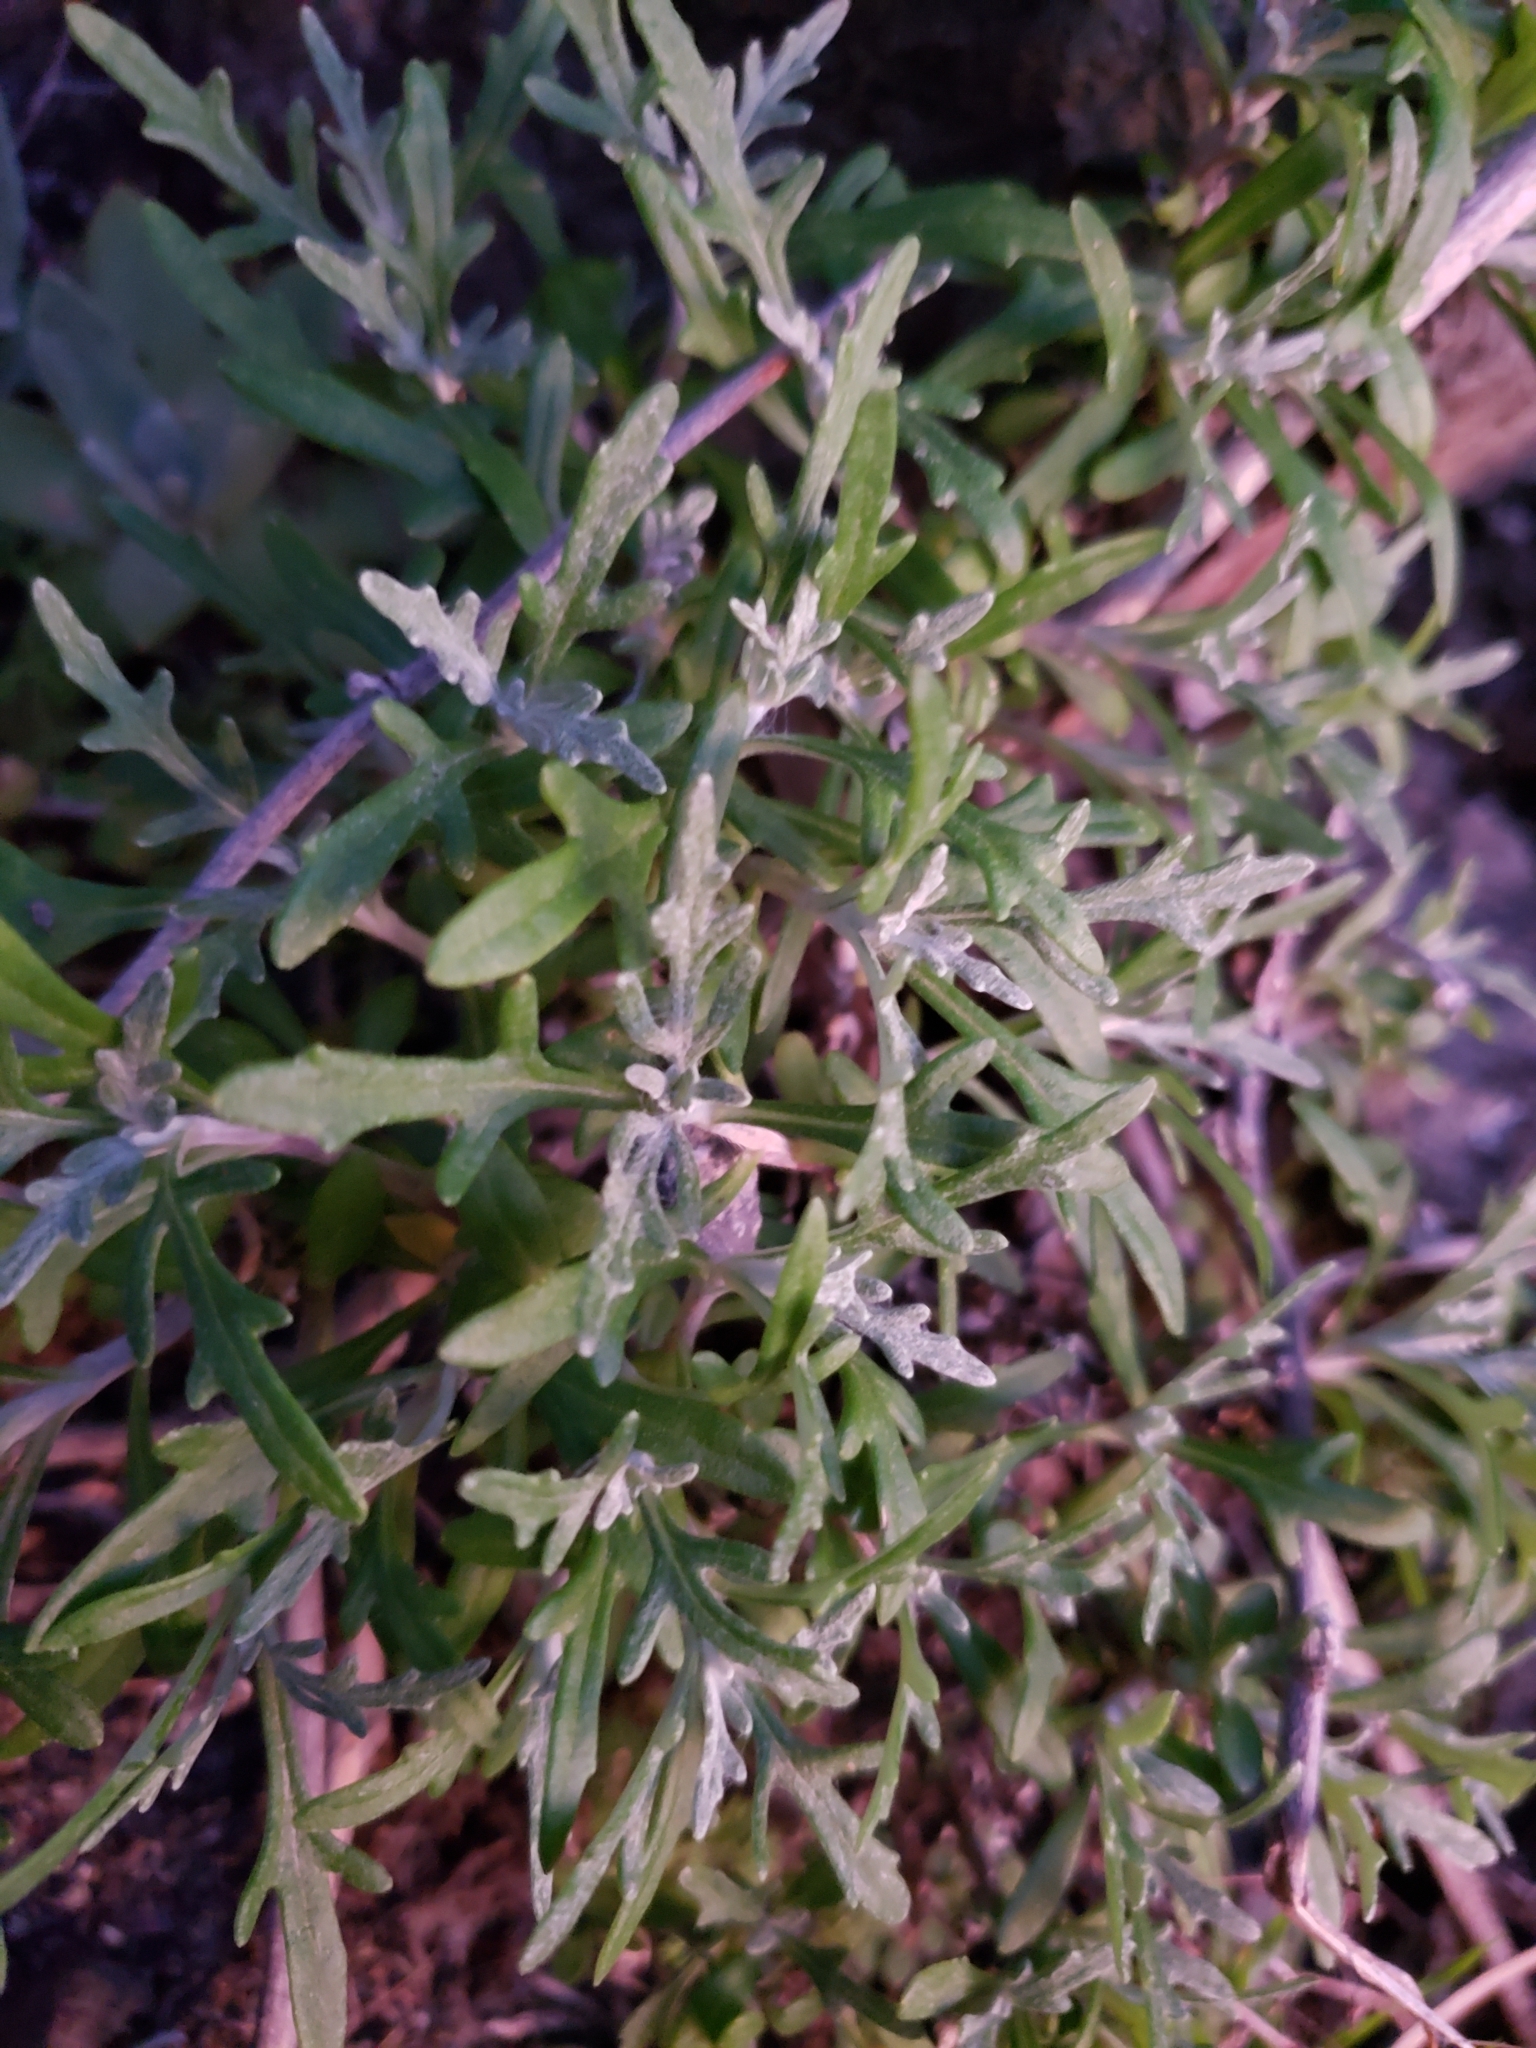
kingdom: Plantae
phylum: Tracheophyta
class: Magnoliopsida
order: Asterales
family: Asteraceae
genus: Eriophyllum
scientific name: Eriophyllum staechadifolium
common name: Lizardtail
